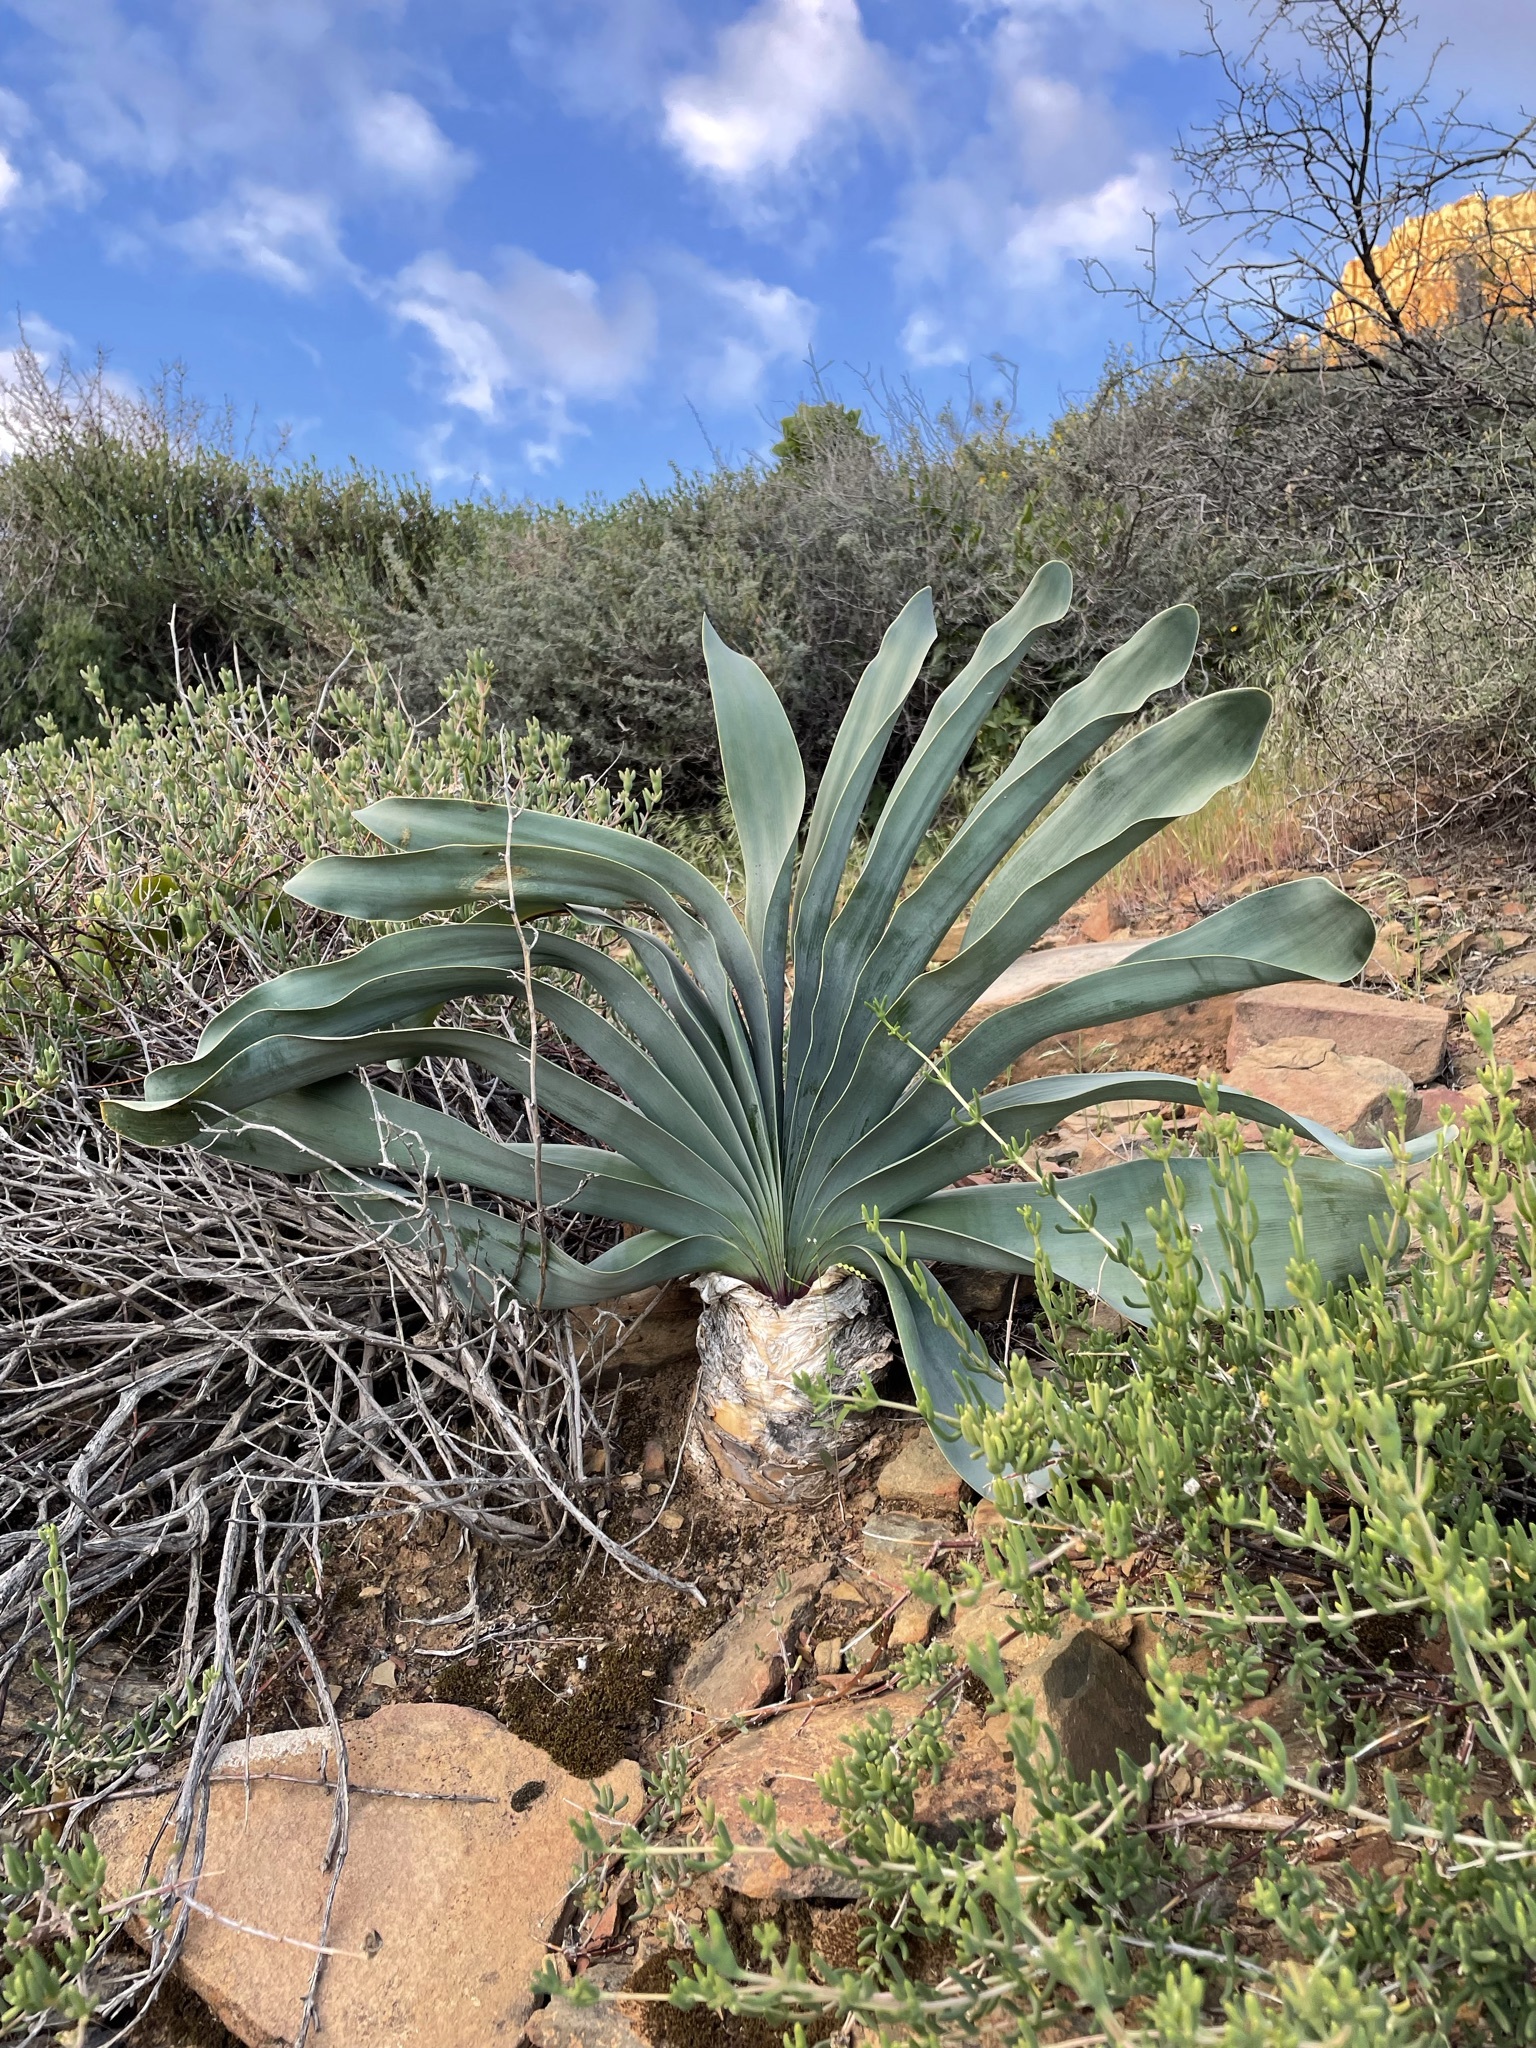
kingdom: Plantae
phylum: Tracheophyta
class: Liliopsida
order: Asparagales
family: Amaryllidaceae
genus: Boophone
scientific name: Boophone haemanthoides
